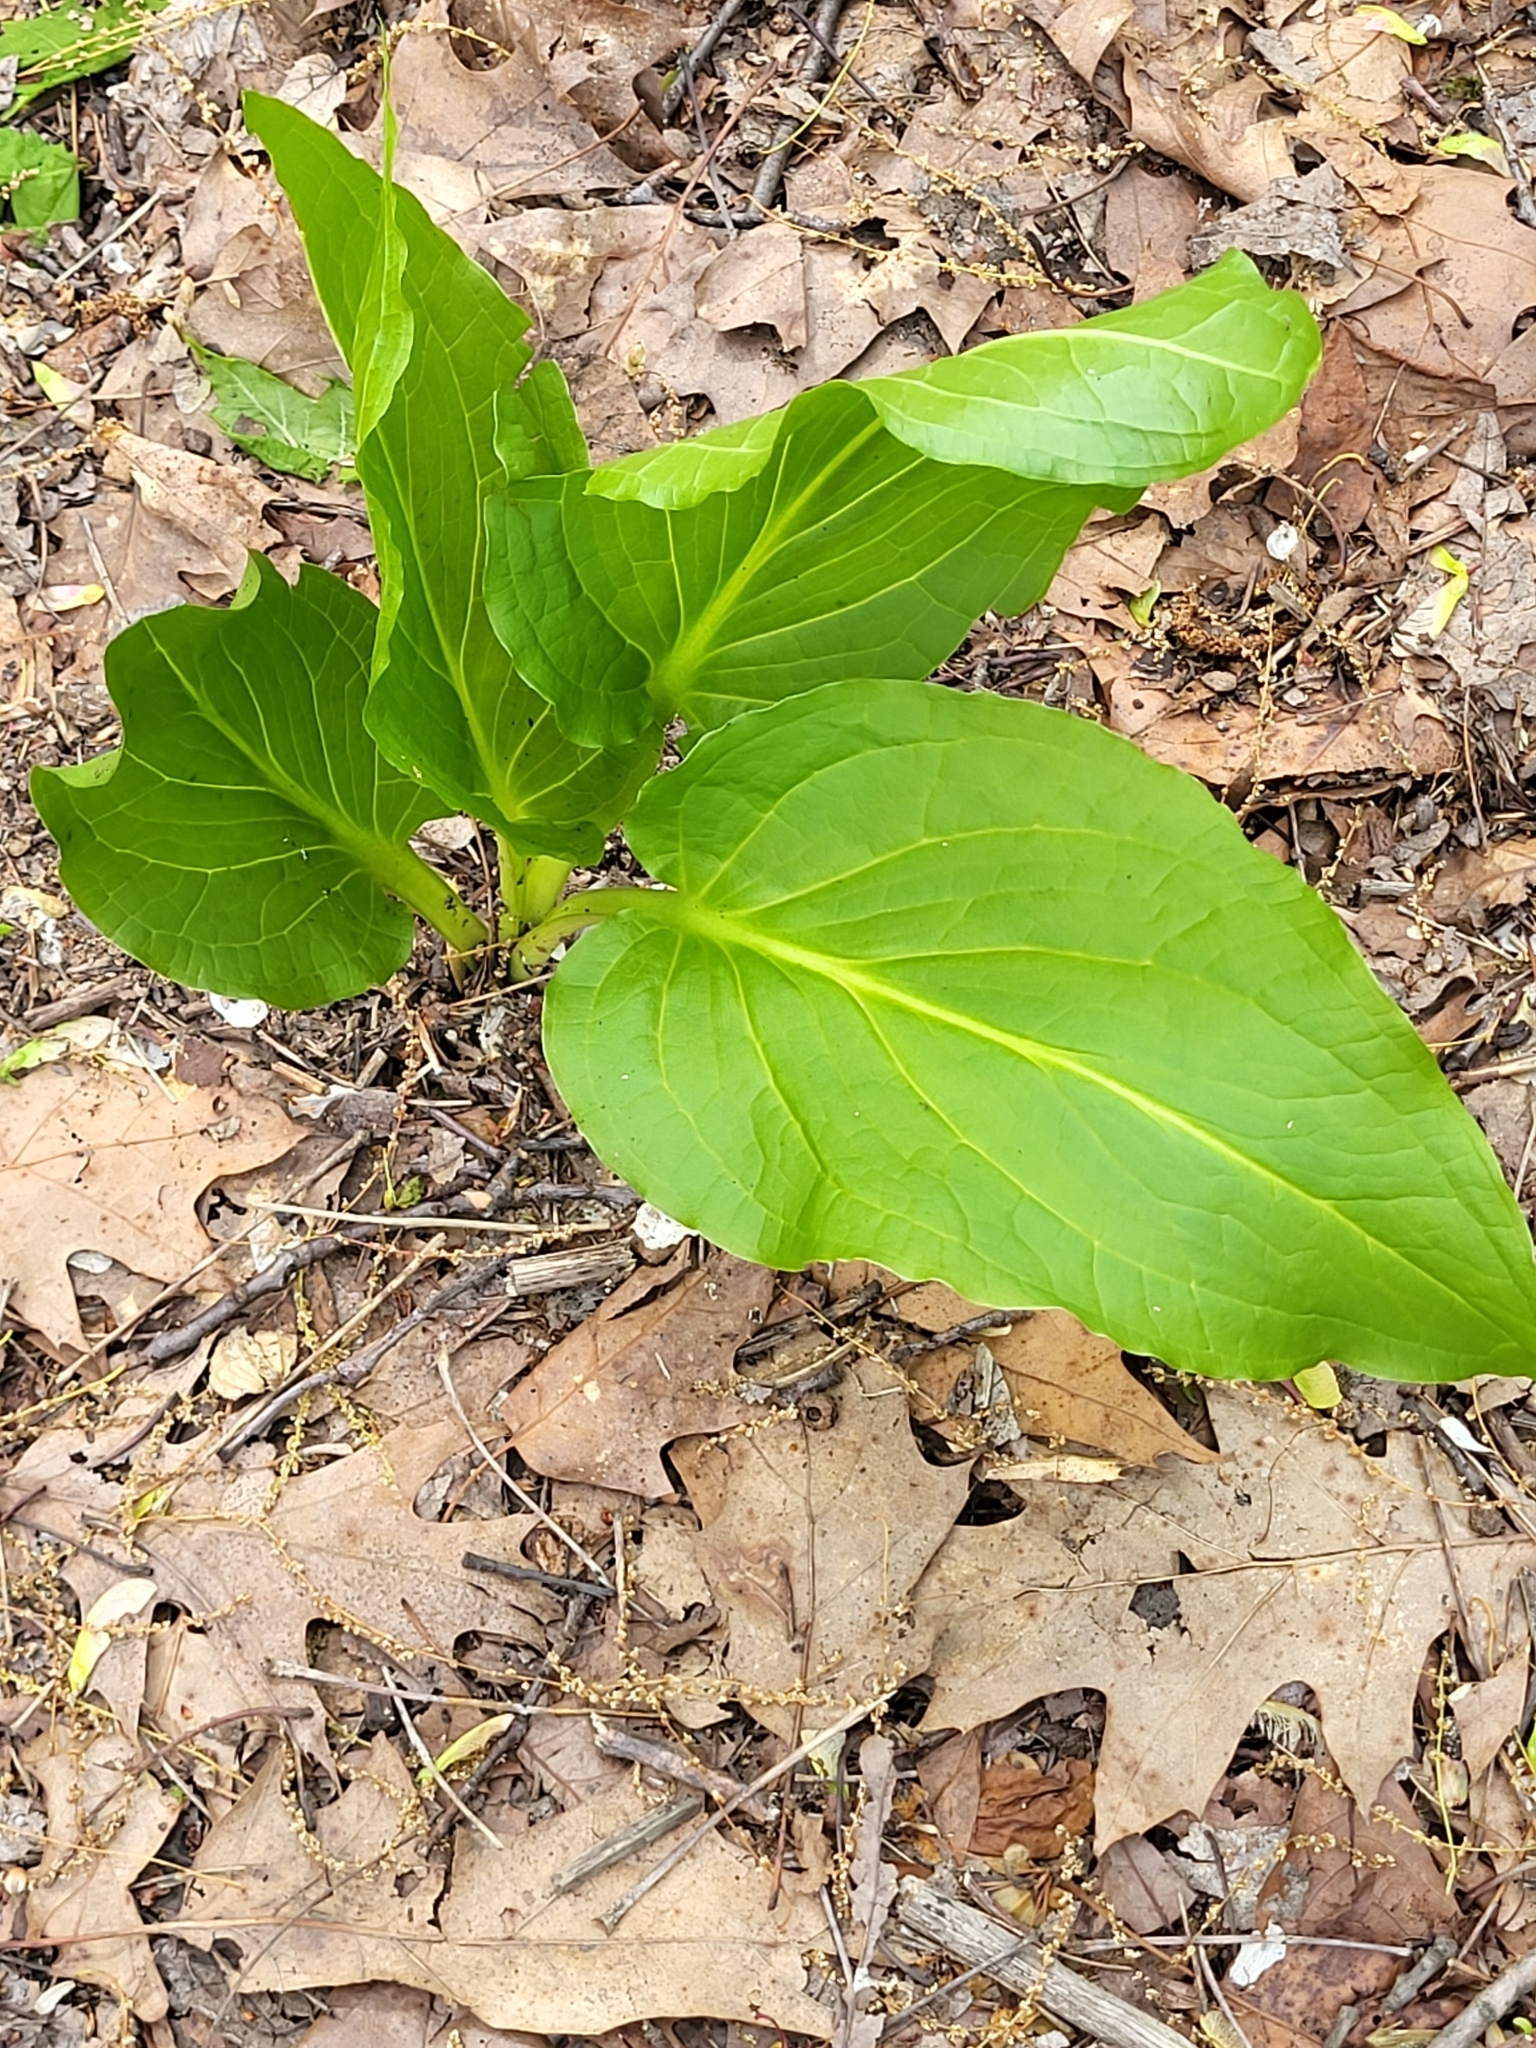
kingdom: Plantae
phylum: Tracheophyta
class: Liliopsida
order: Alismatales
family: Araceae
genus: Symplocarpus
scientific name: Symplocarpus foetidus
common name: Eastern skunk cabbage
